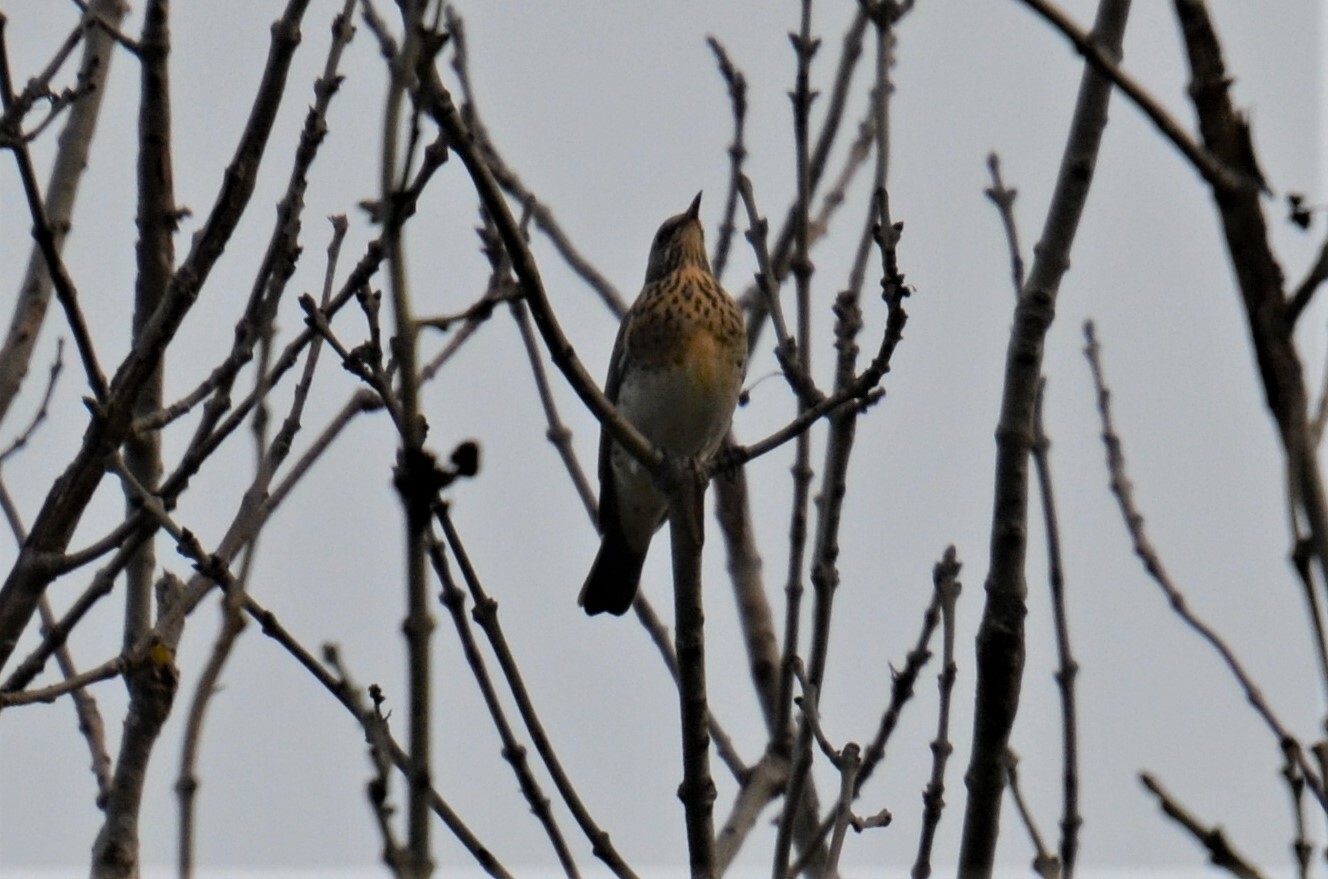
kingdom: Animalia
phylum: Chordata
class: Aves
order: Passeriformes
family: Turdidae
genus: Turdus
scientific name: Turdus pilaris
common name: Fieldfare
